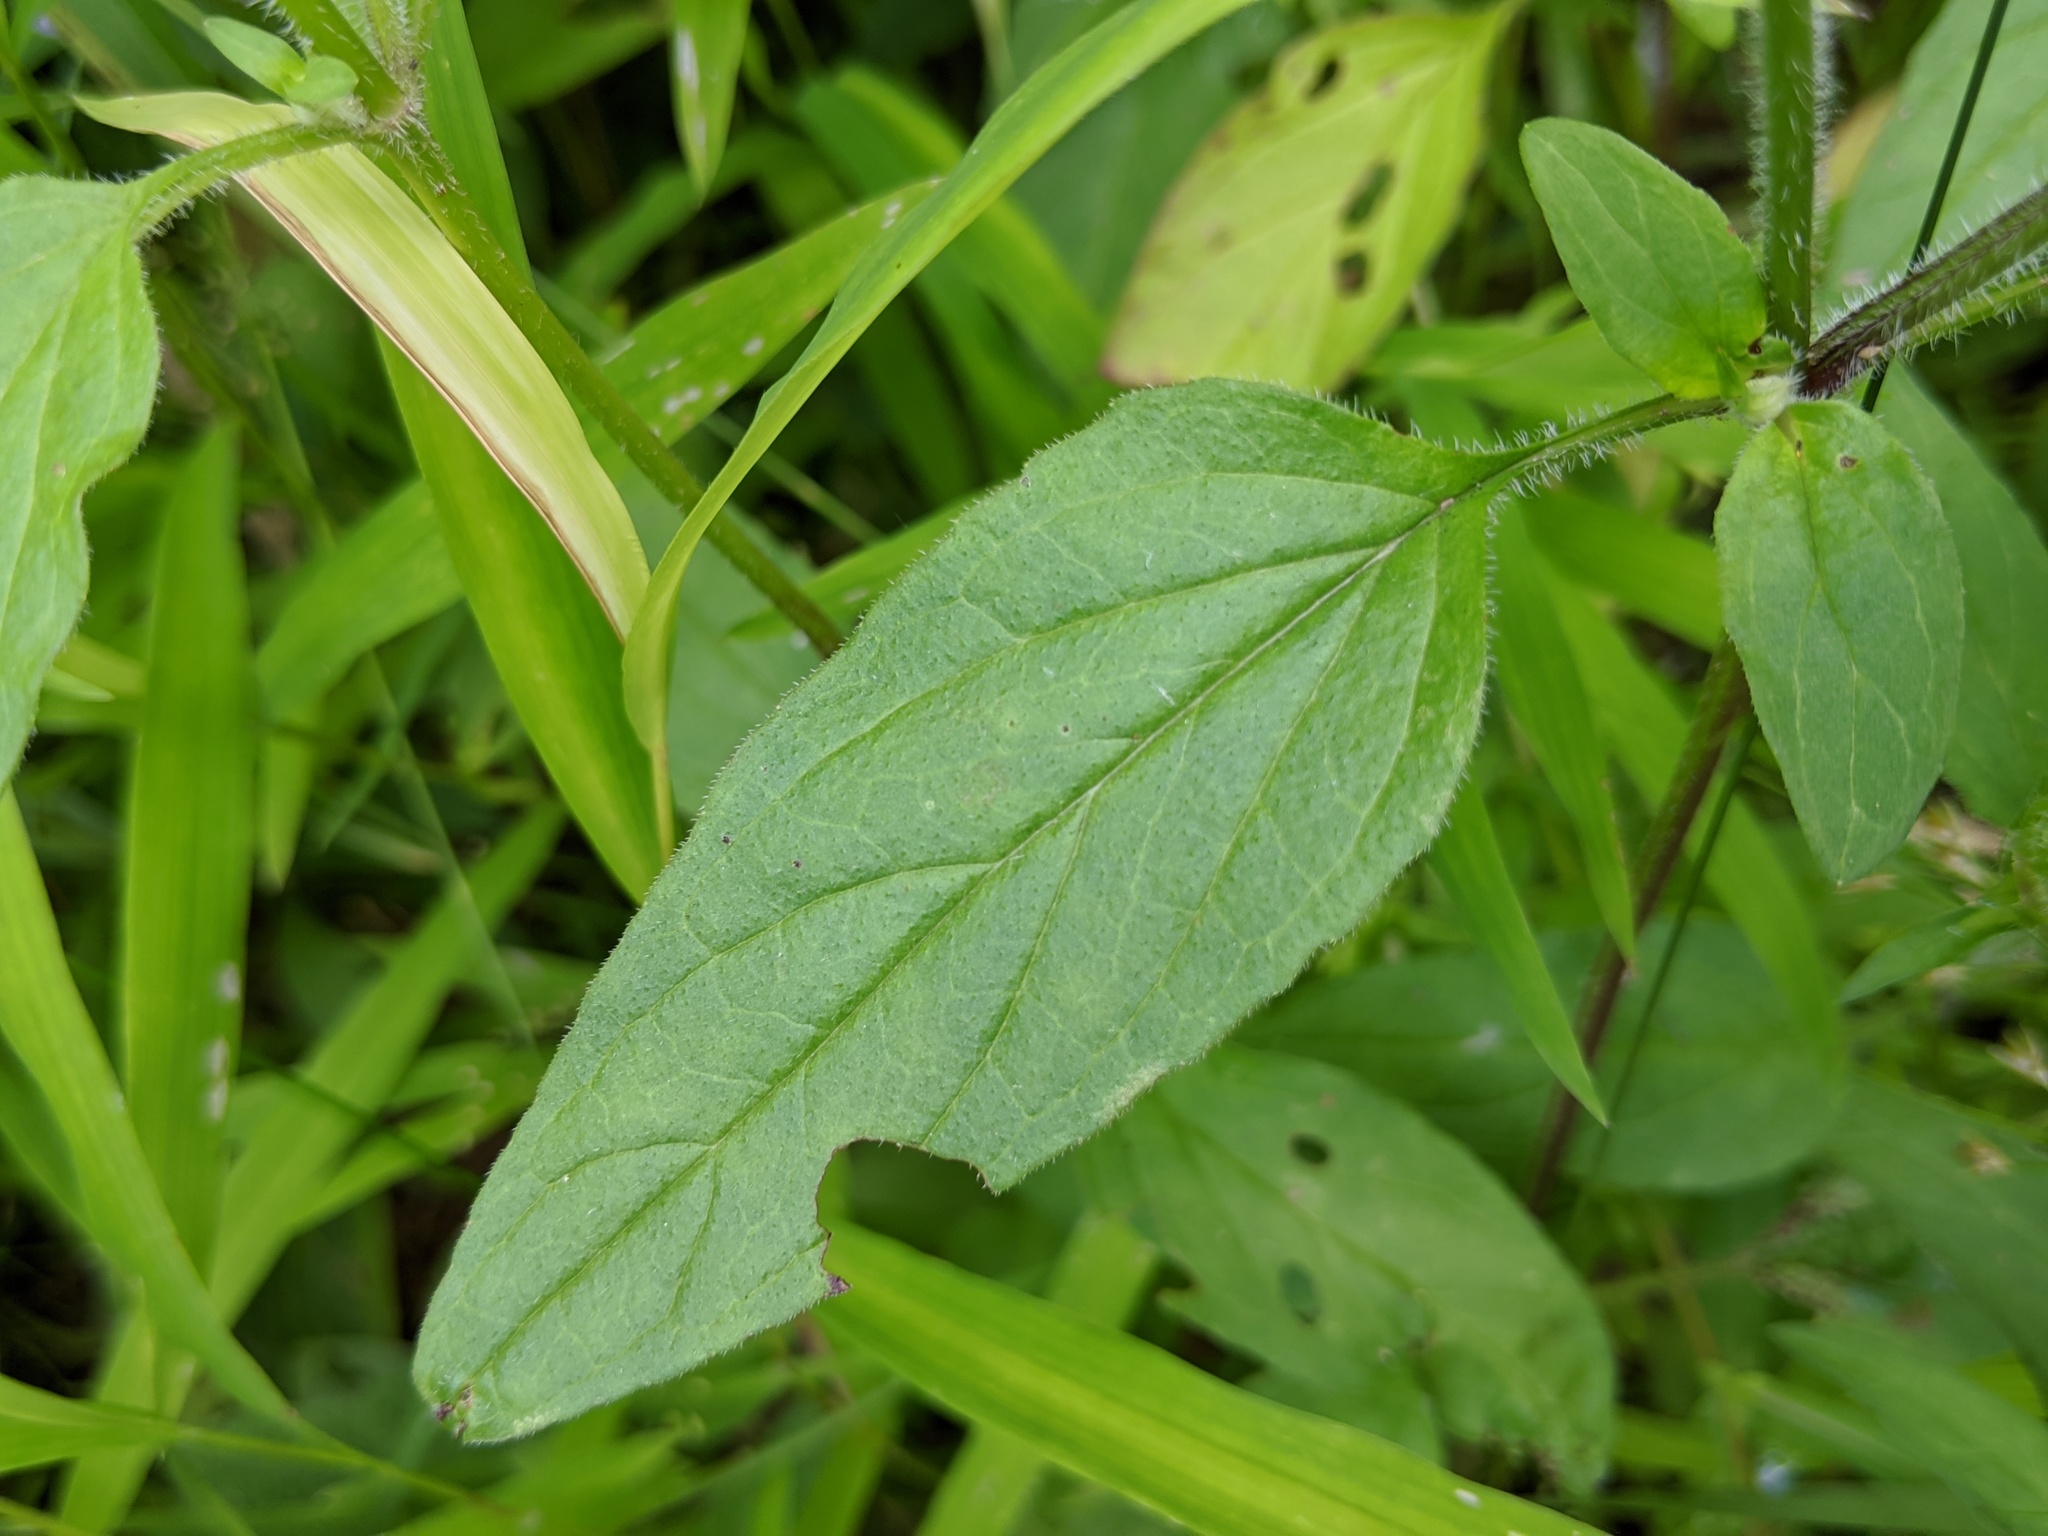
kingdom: Plantae
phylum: Tracheophyta
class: Magnoliopsida
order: Lamiales
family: Lamiaceae
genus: Prunella
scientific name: Prunella vulgaris
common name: Heal-all
